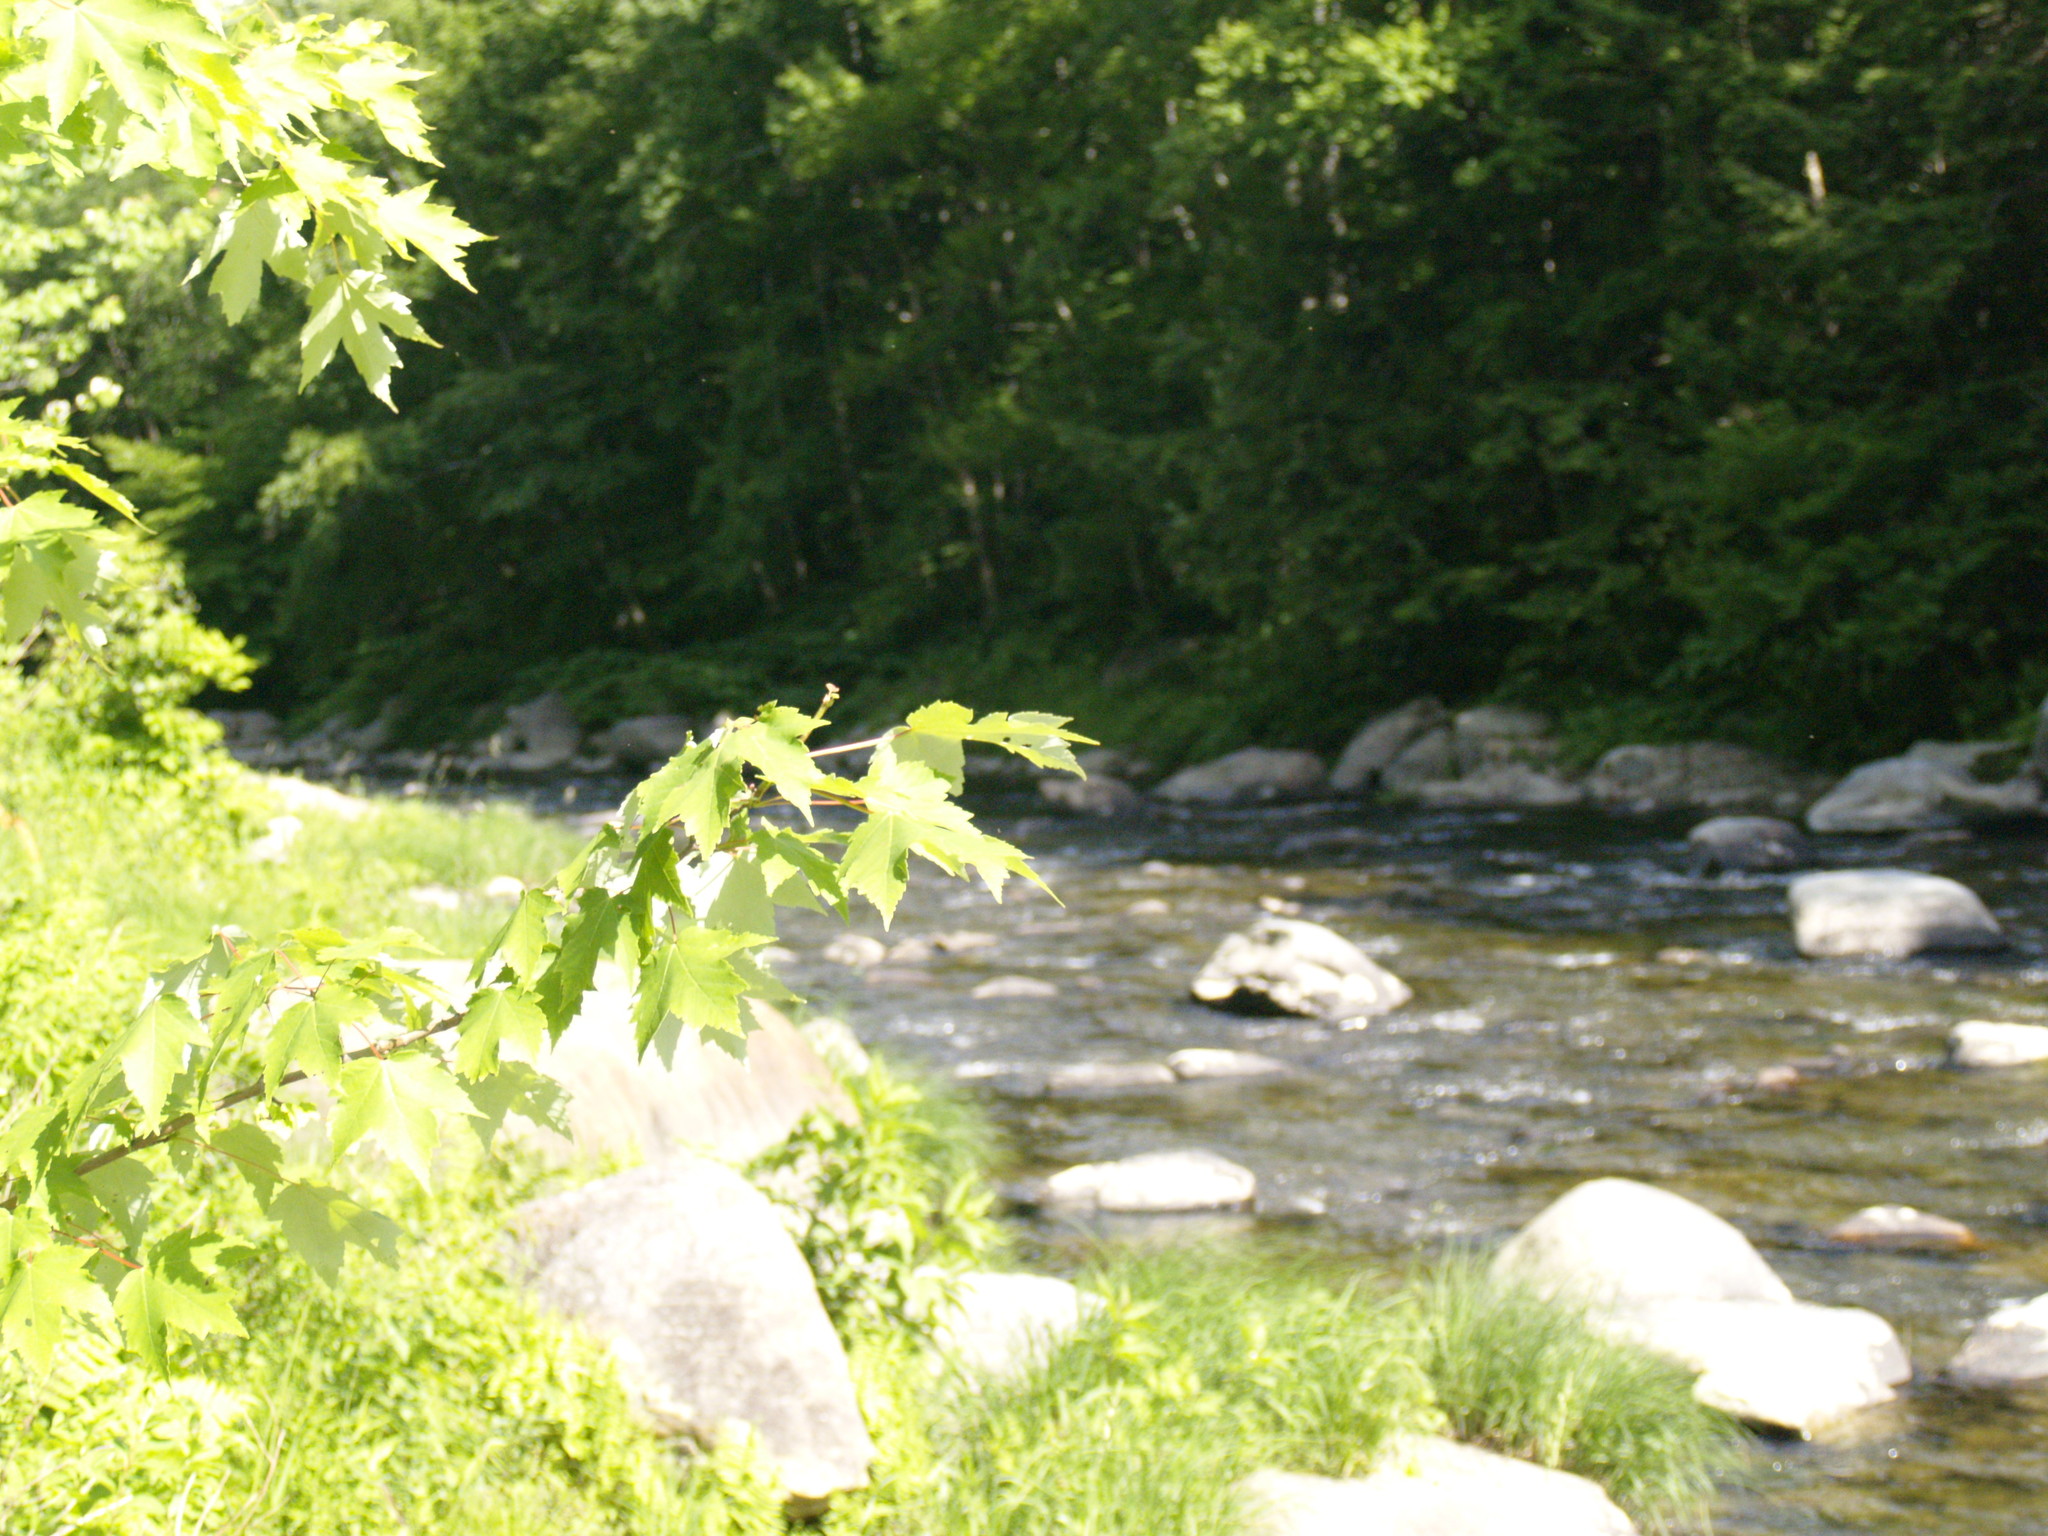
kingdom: Plantae
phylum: Tracheophyta
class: Magnoliopsida
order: Sapindales
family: Sapindaceae
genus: Acer
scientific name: Acer rubrum
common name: Red maple
